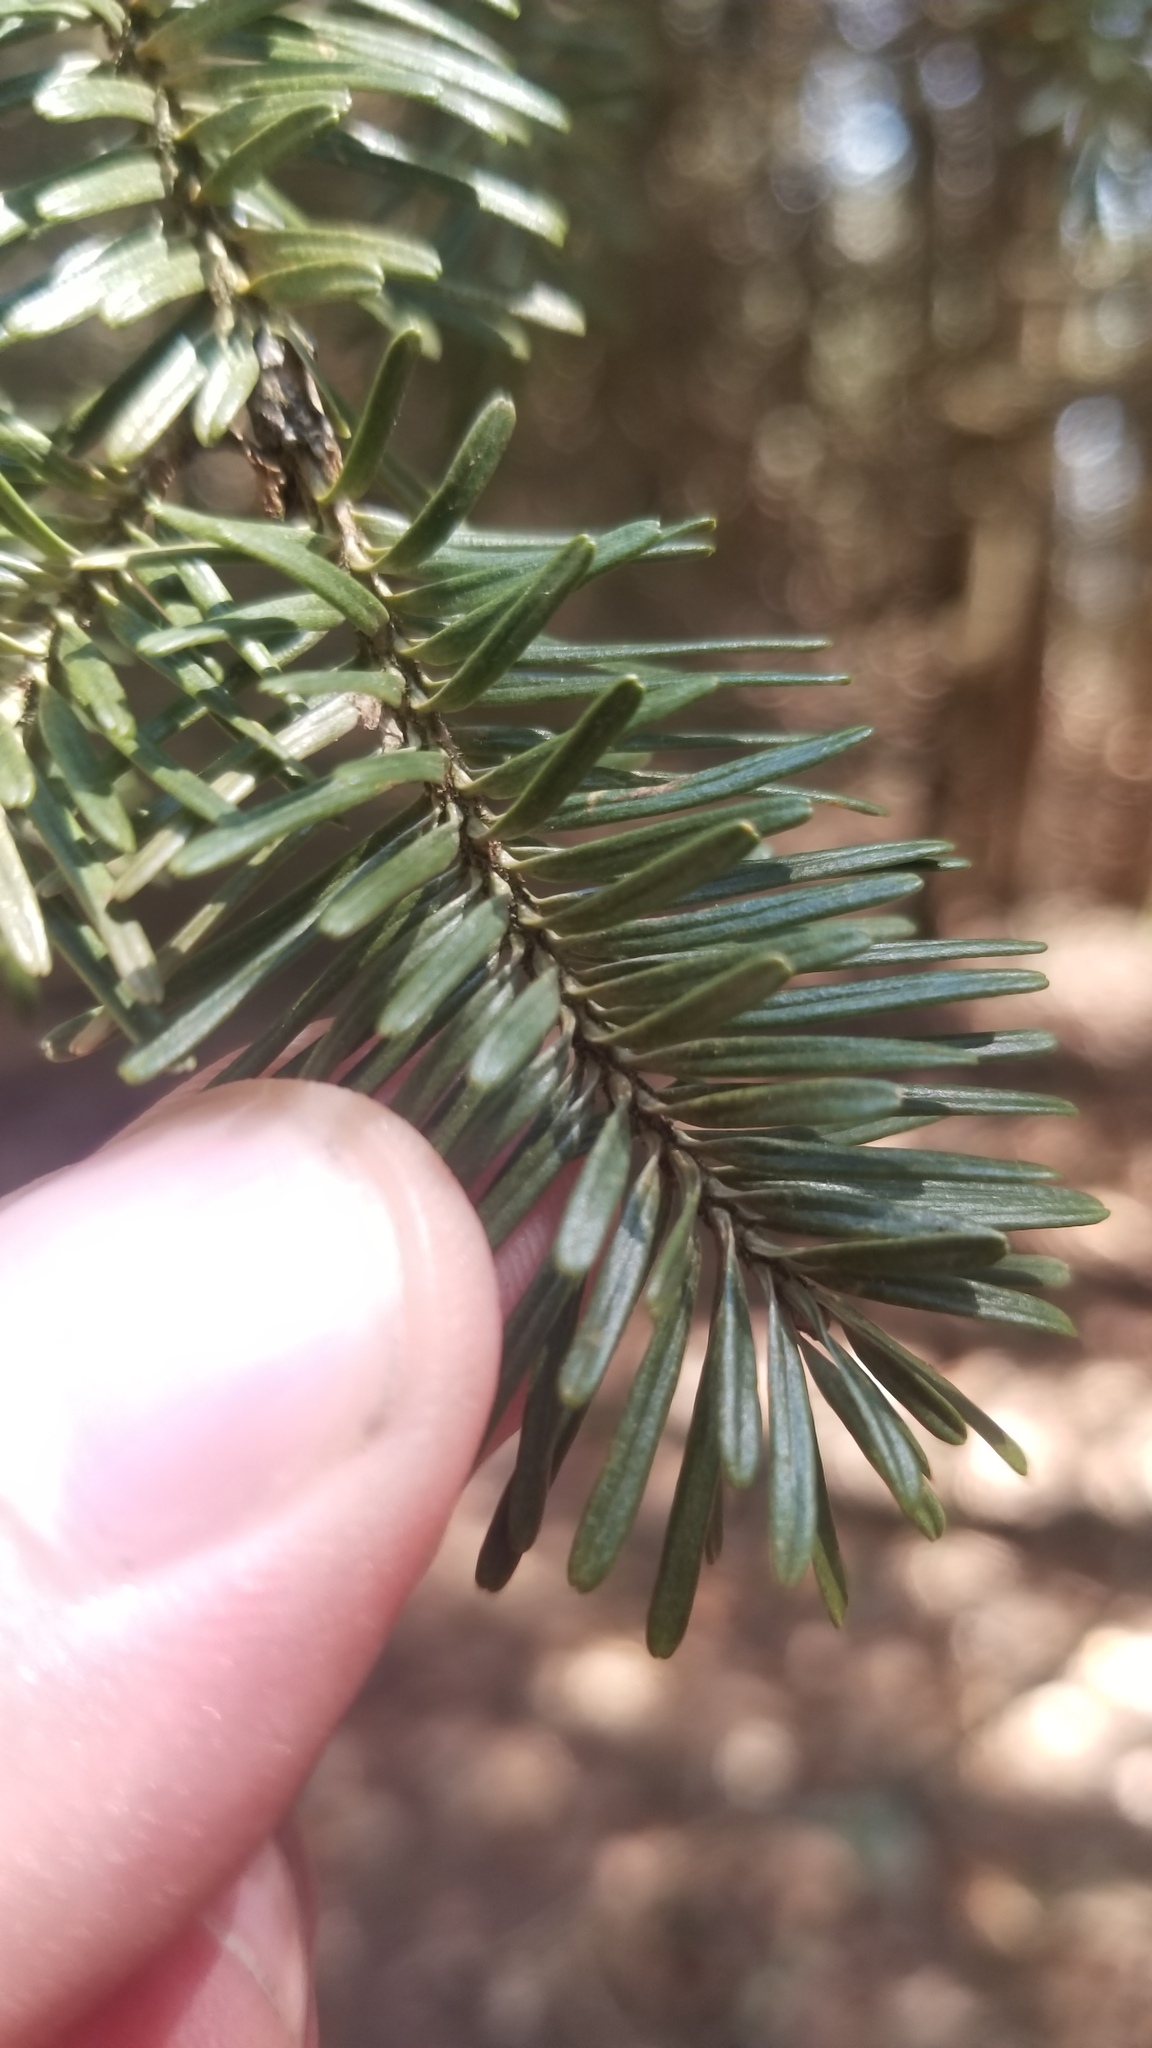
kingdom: Plantae
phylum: Tracheophyta
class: Pinopsida
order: Pinales
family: Pinaceae
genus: Abies
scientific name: Abies balsamea
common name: Balsam fir
